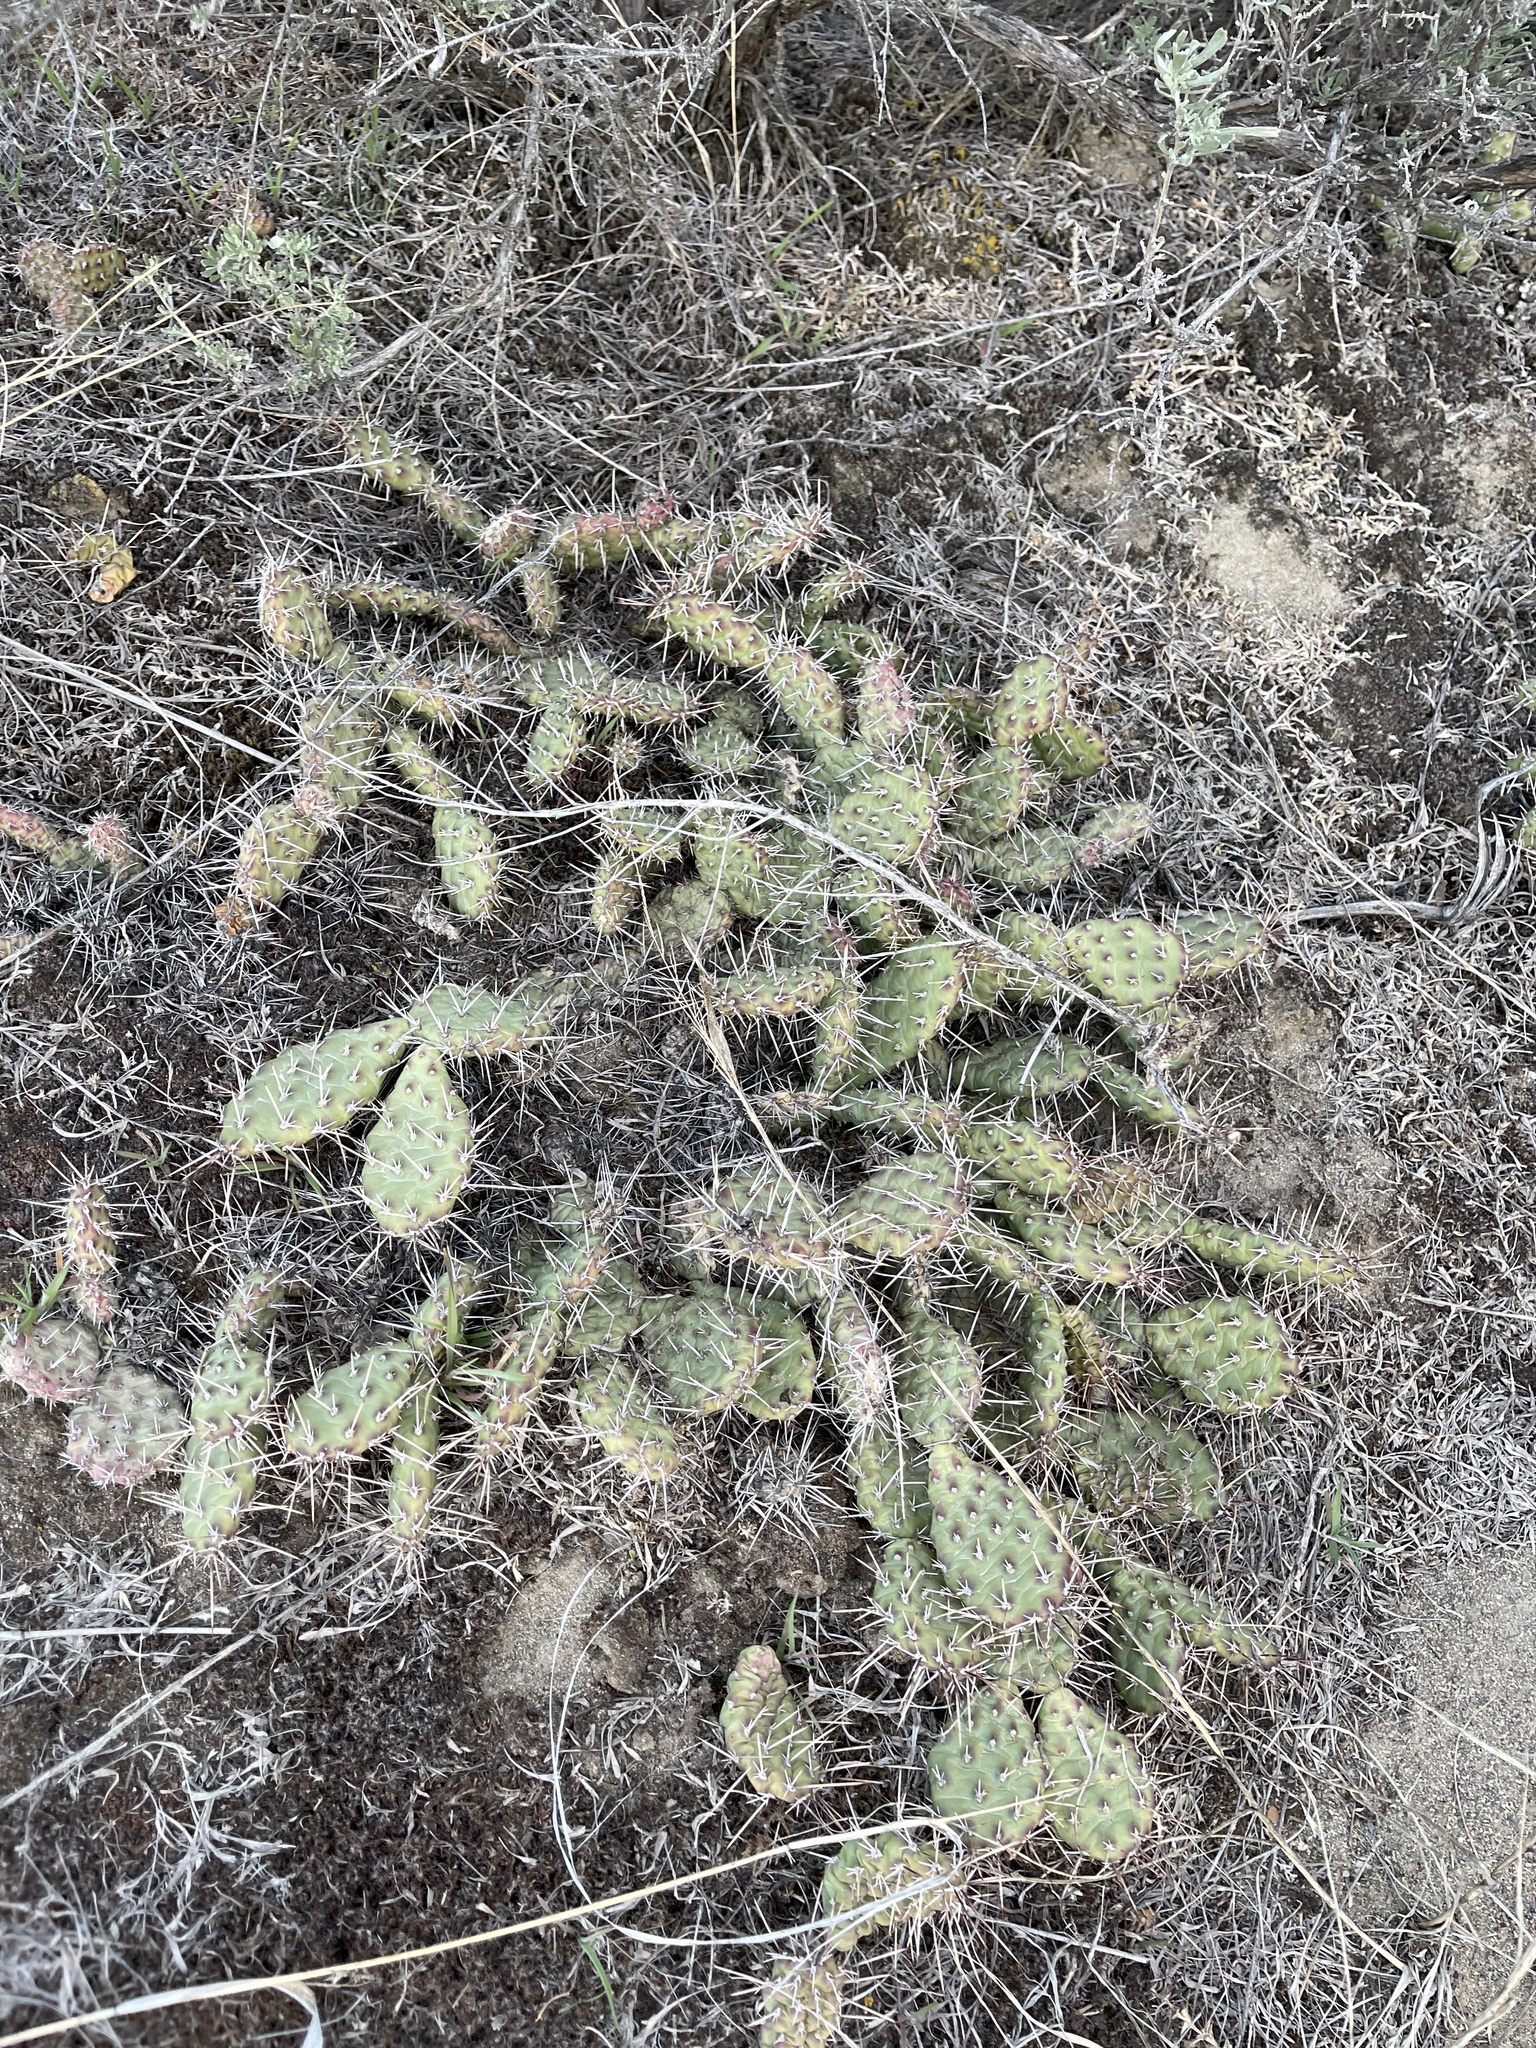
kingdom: Plantae
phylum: Tracheophyta
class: Magnoliopsida
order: Caryophyllales
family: Cactaceae
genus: Opuntia
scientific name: Opuntia columbiana
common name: Columbia prickly-pear
